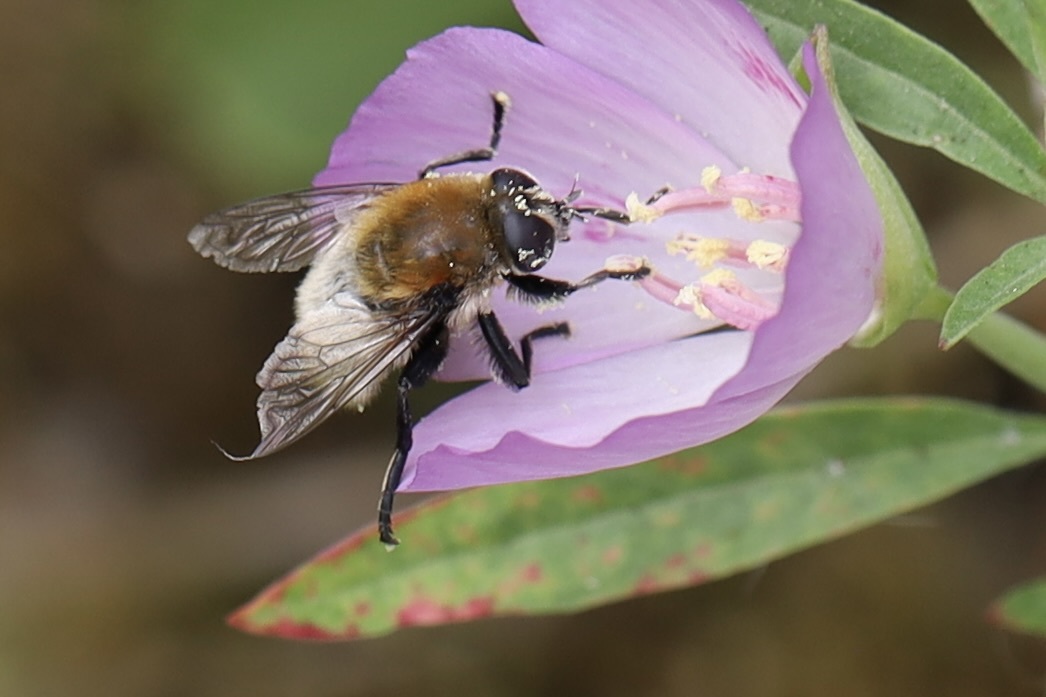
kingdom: Animalia
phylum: Arthropoda
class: Insecta
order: Diptera
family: Syrphidae
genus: Merodon
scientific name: Merodon equestris
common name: Greater bulb-fly
